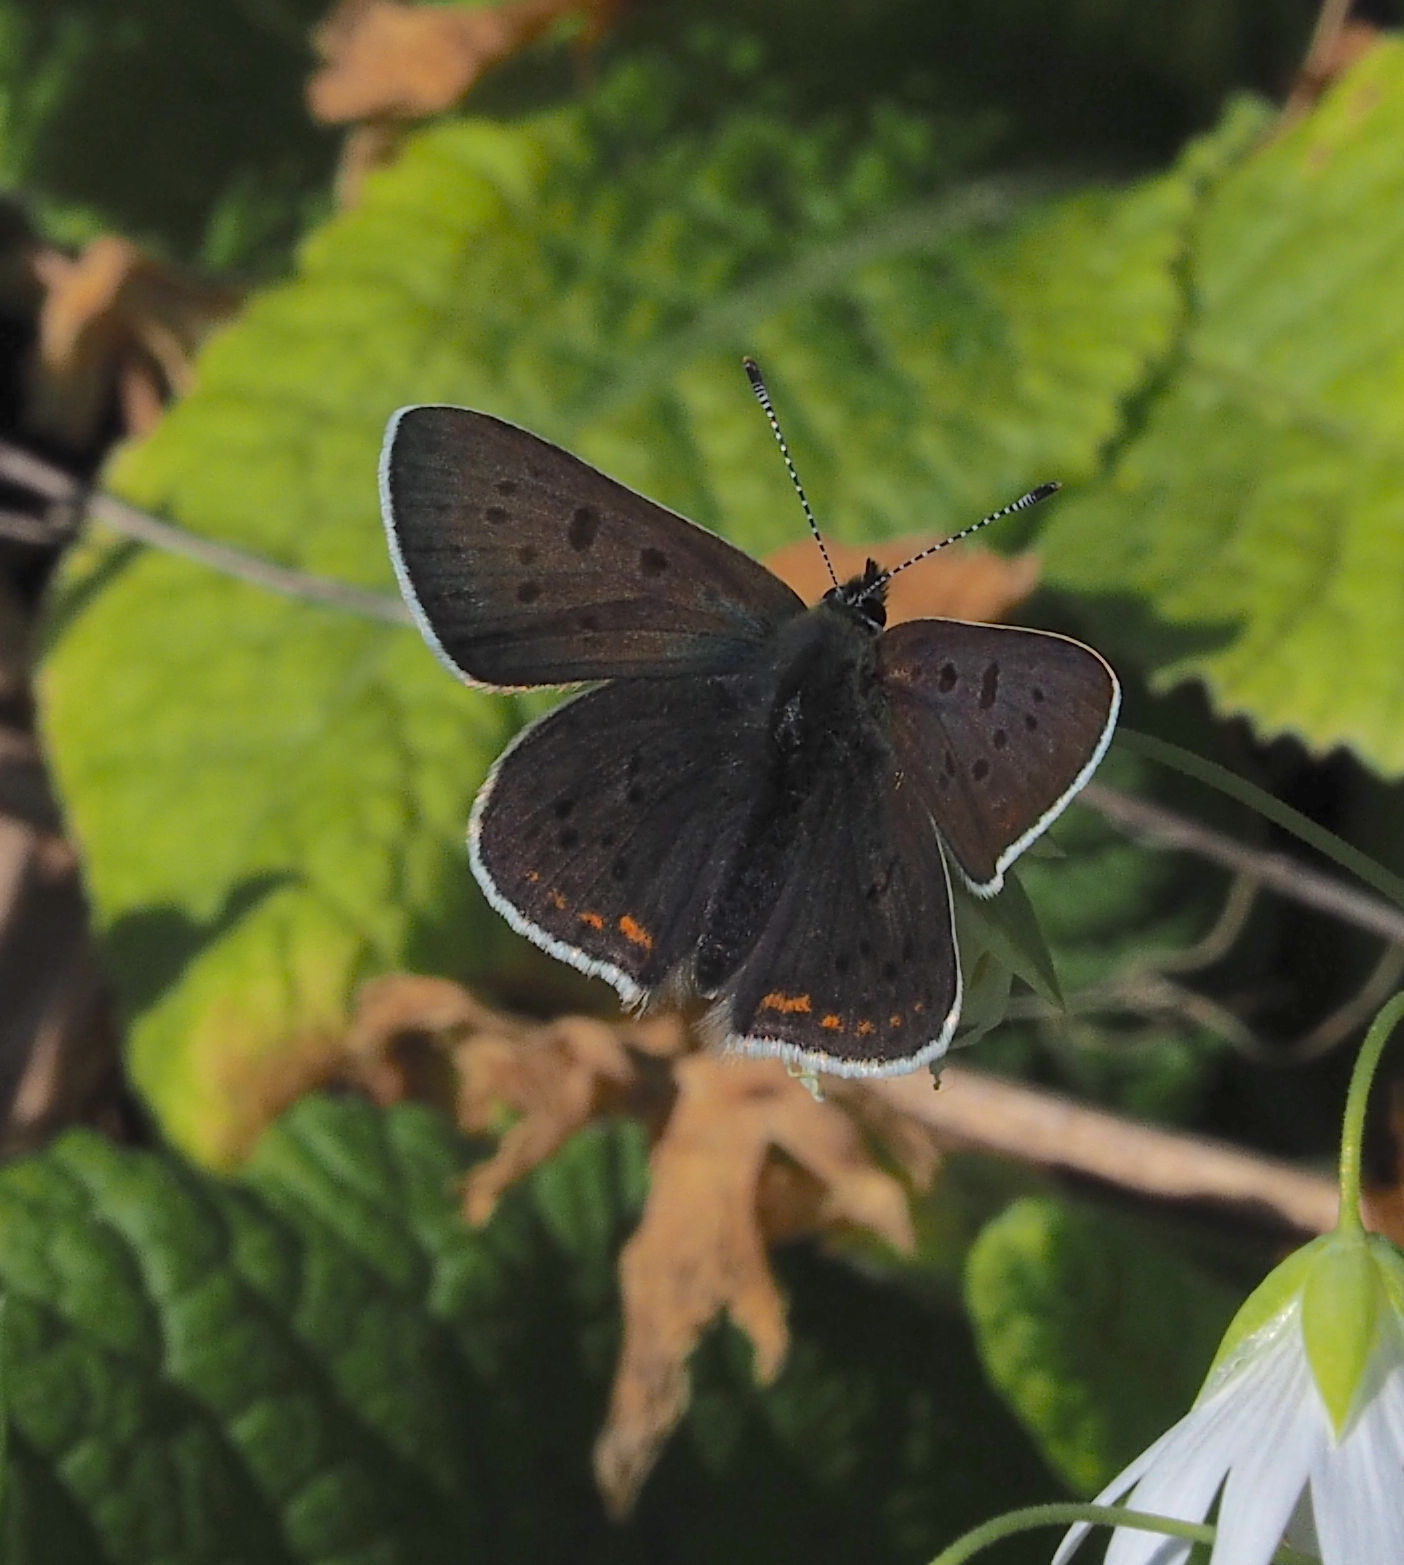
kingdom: Animalia
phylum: Arthropoda
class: Insecta
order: Lepidoptera
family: Lycaenidae
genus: Loweia
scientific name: Loweia tityrus
